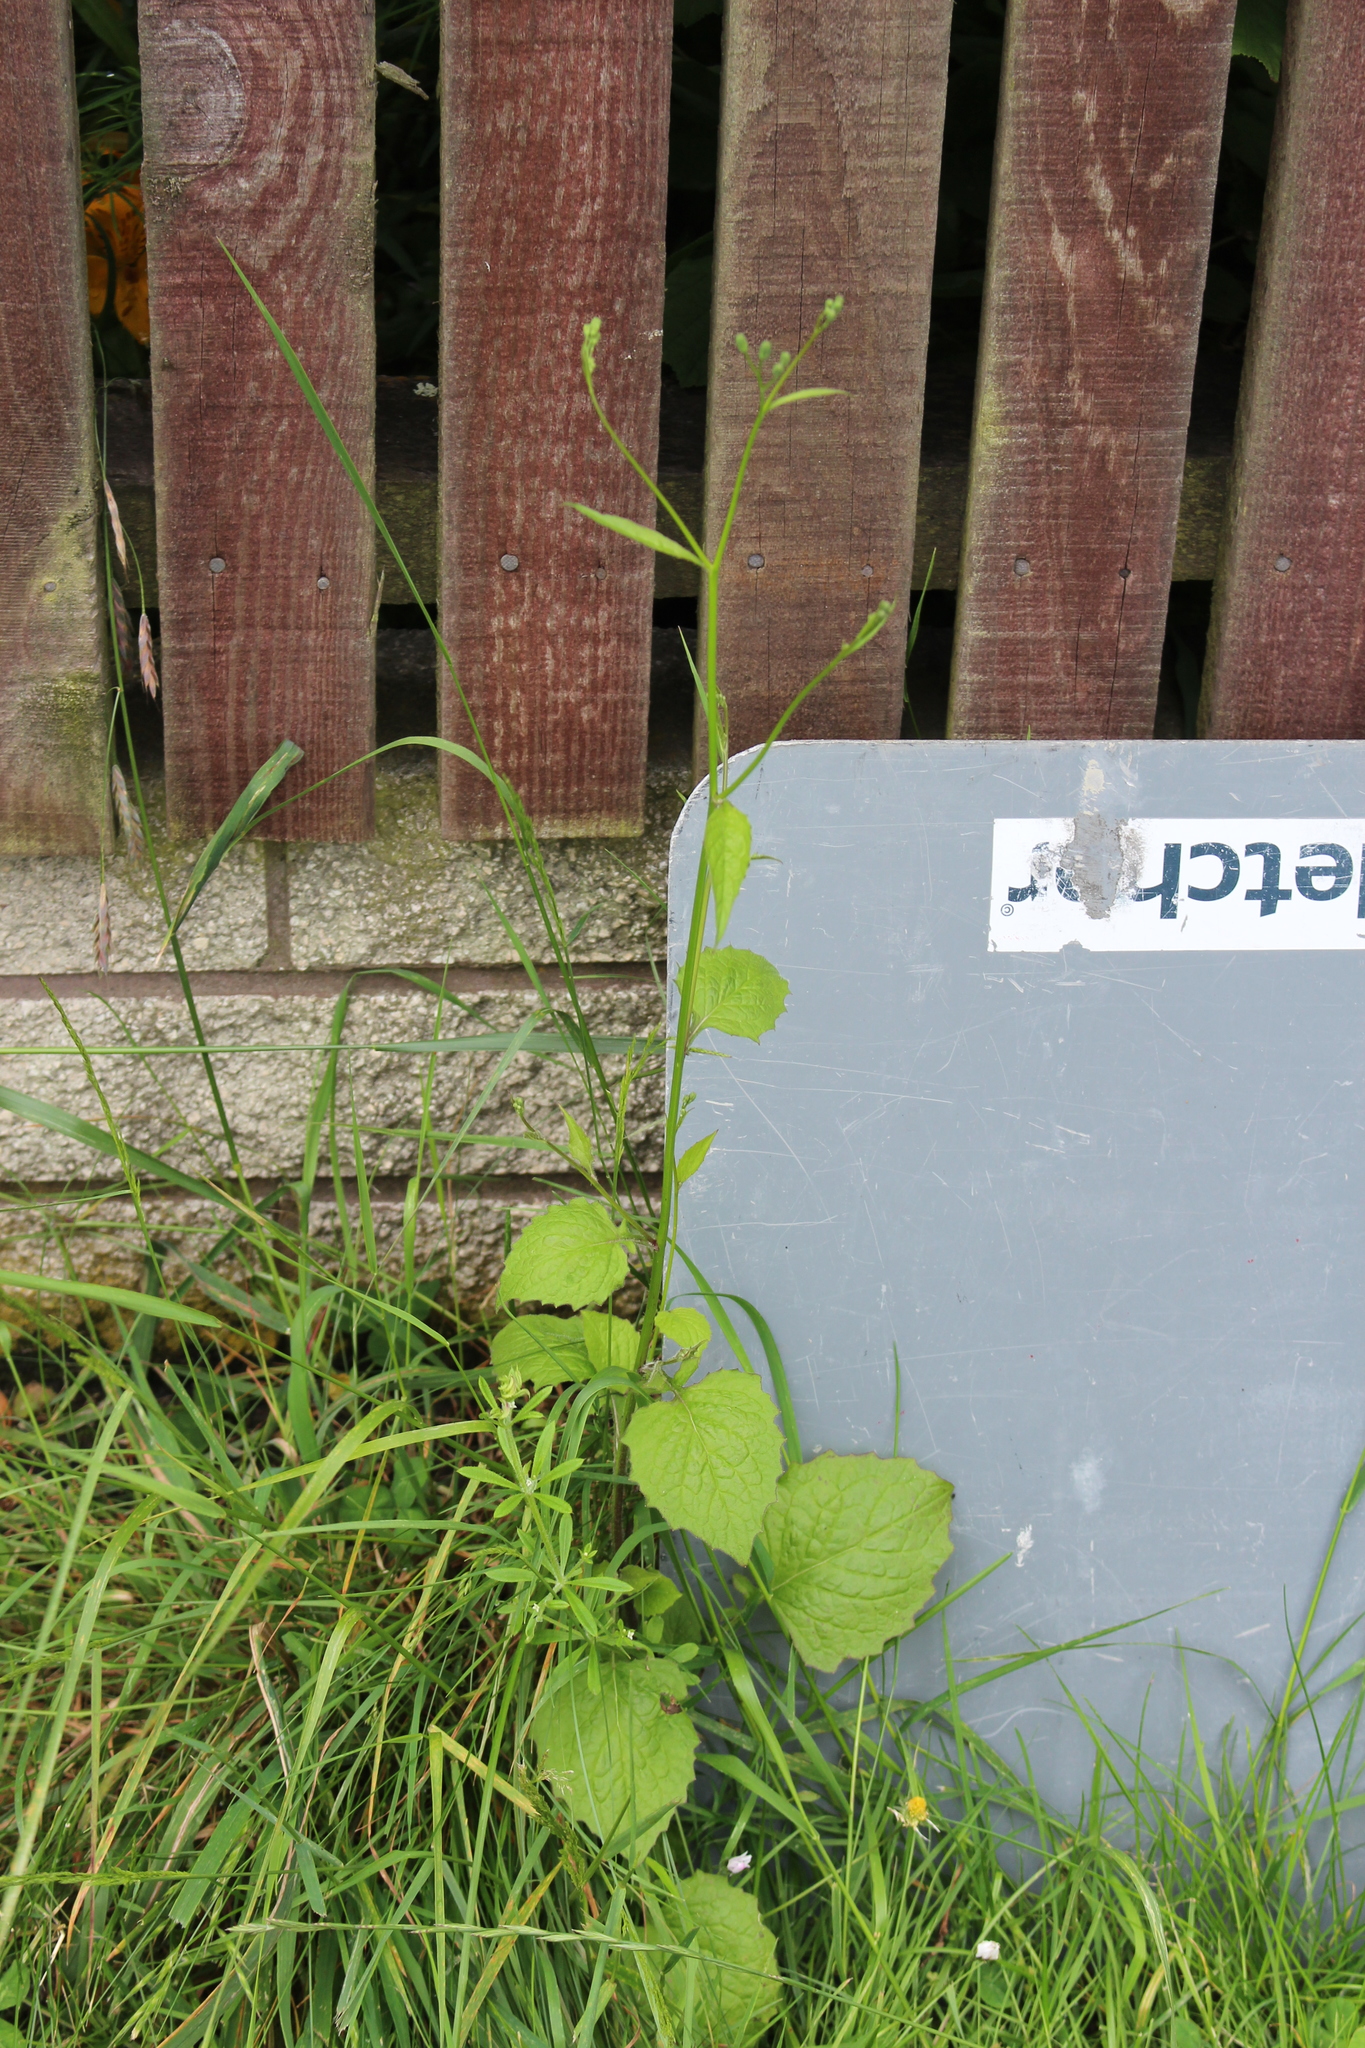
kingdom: Plantae
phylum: Tracheophyta
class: Magnoliopsida
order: Asterales
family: Asteraceae
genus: Lapsana
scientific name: Lapsana communis
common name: Nipplewort
